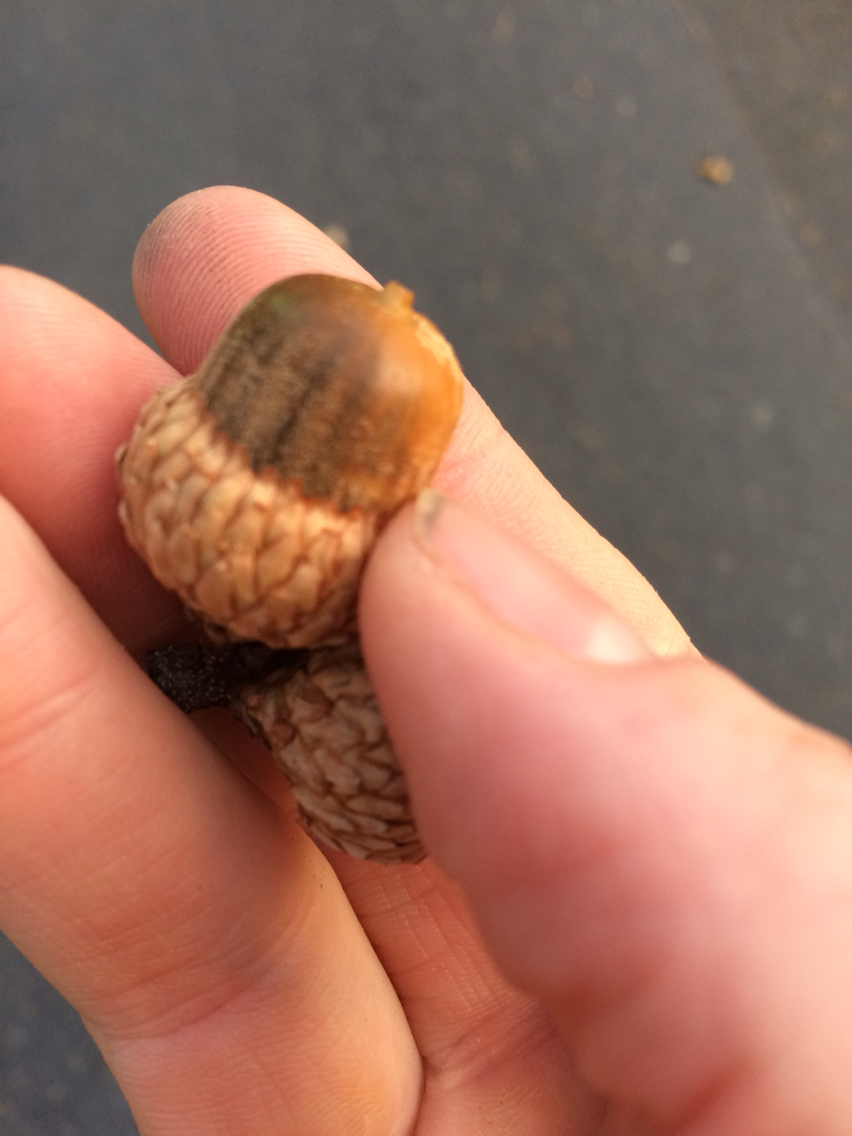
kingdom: Plantae
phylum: Tracheophyta
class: Magnoliopsida
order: Fagales
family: Fagaceae
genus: Quercus
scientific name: Quercus velutina
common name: Black oak
